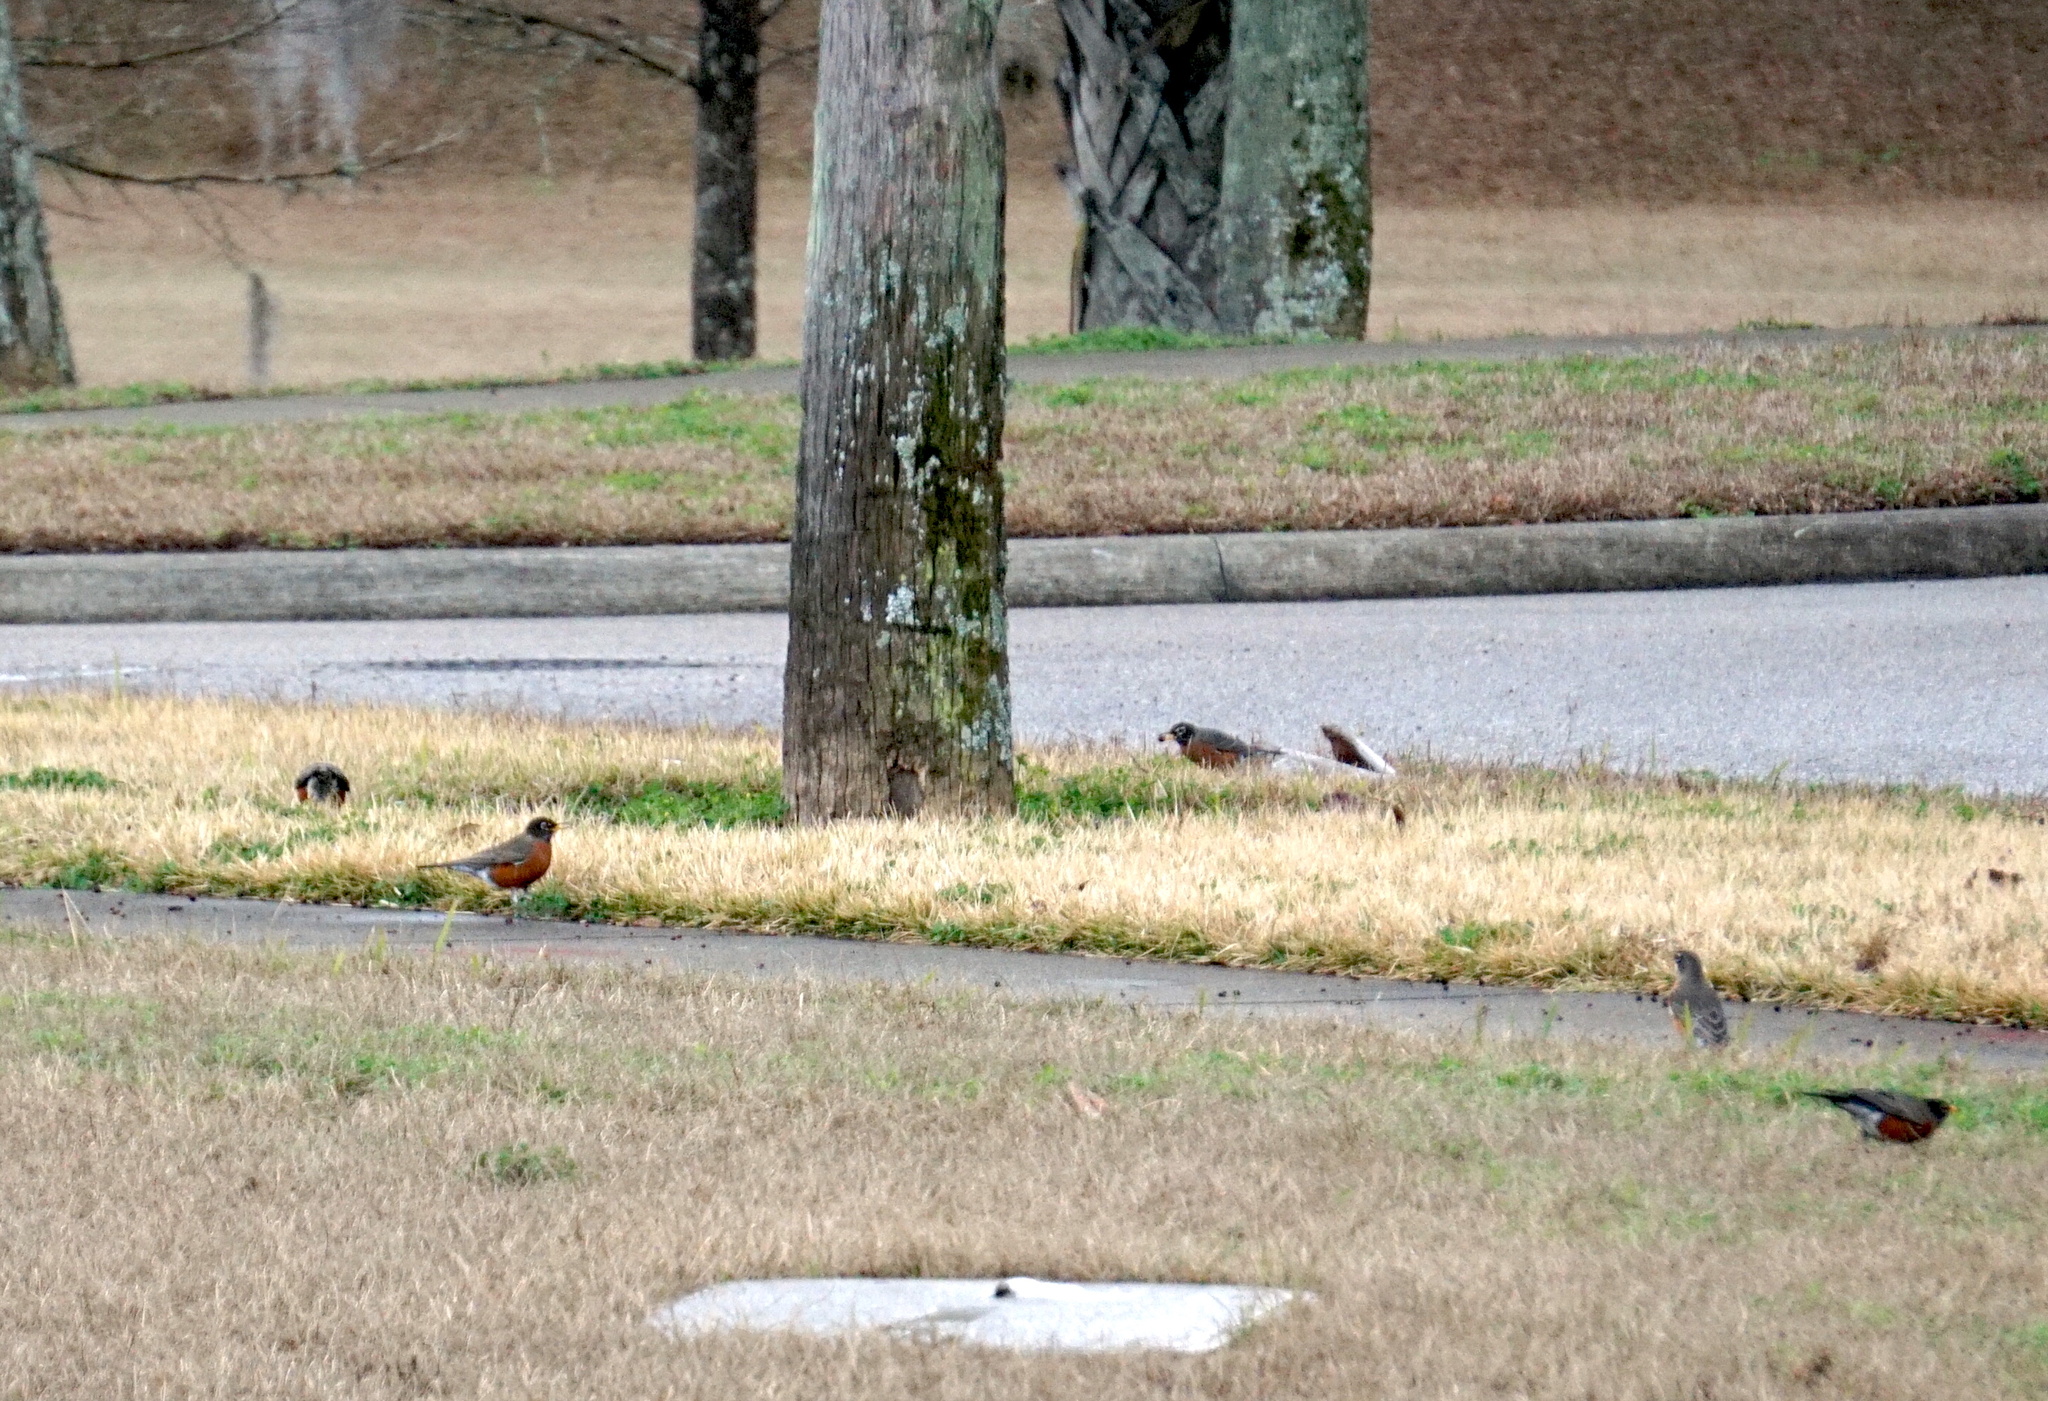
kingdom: Animalia
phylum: Chordata
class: Aves
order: Passeriformes
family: Turdidae
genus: Turdus
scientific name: Turdus migratorius
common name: American robin
